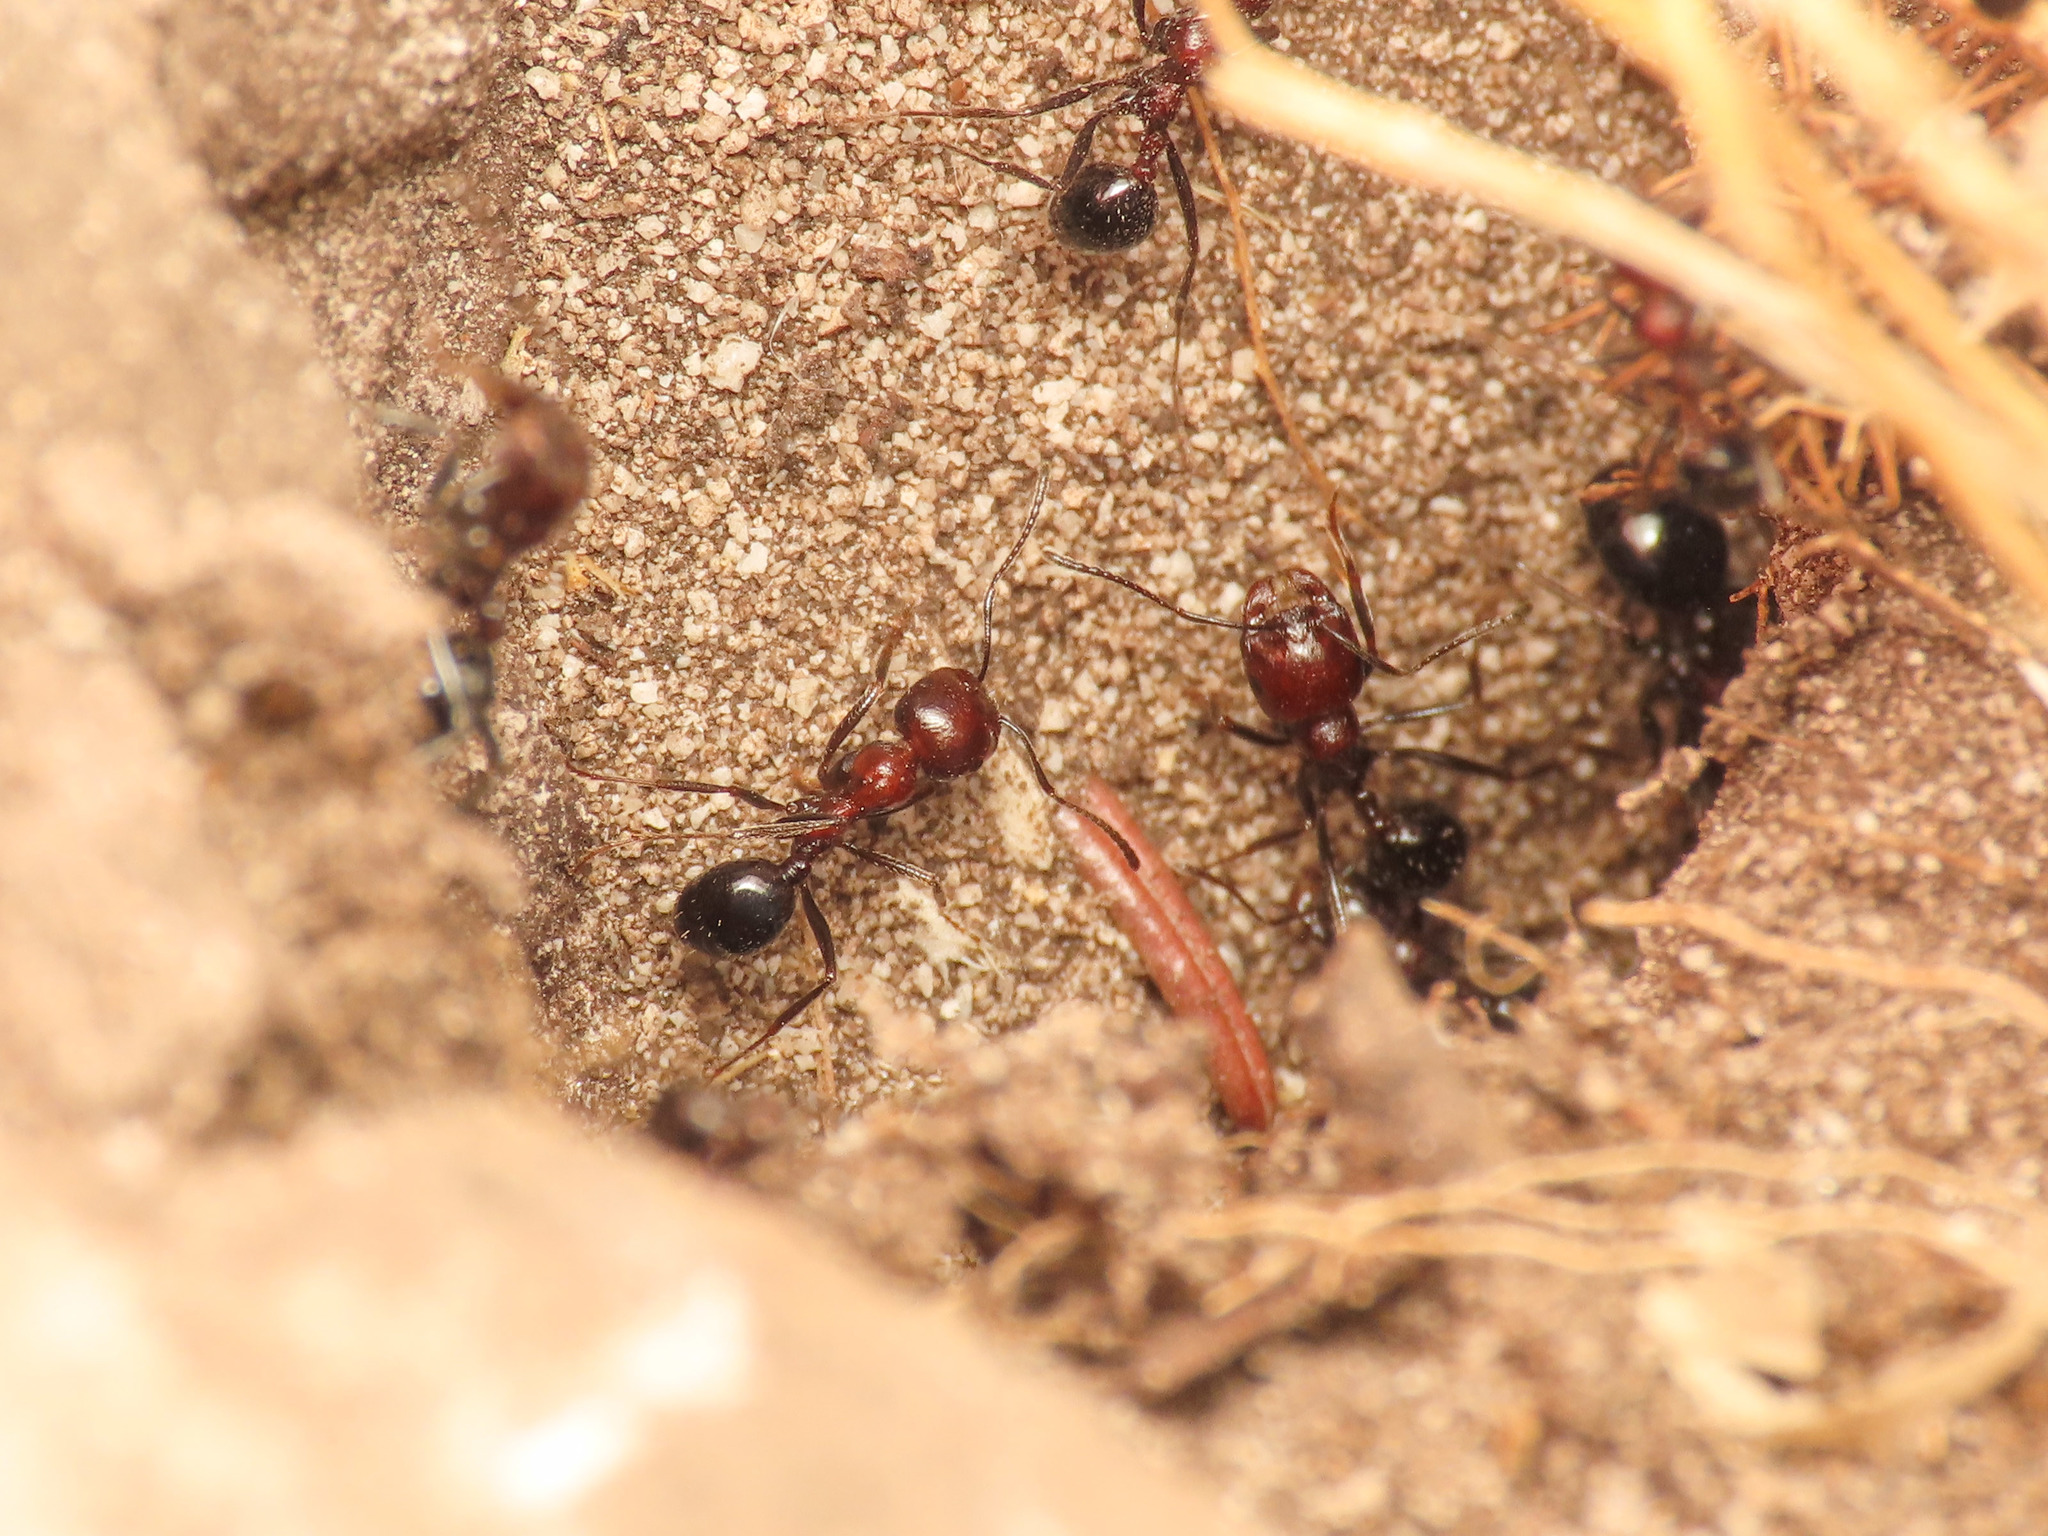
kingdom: Animalia
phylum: Arthropoda
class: Insecta
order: Hymenoptera
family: Formicidae
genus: Messor
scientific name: Messor minor
